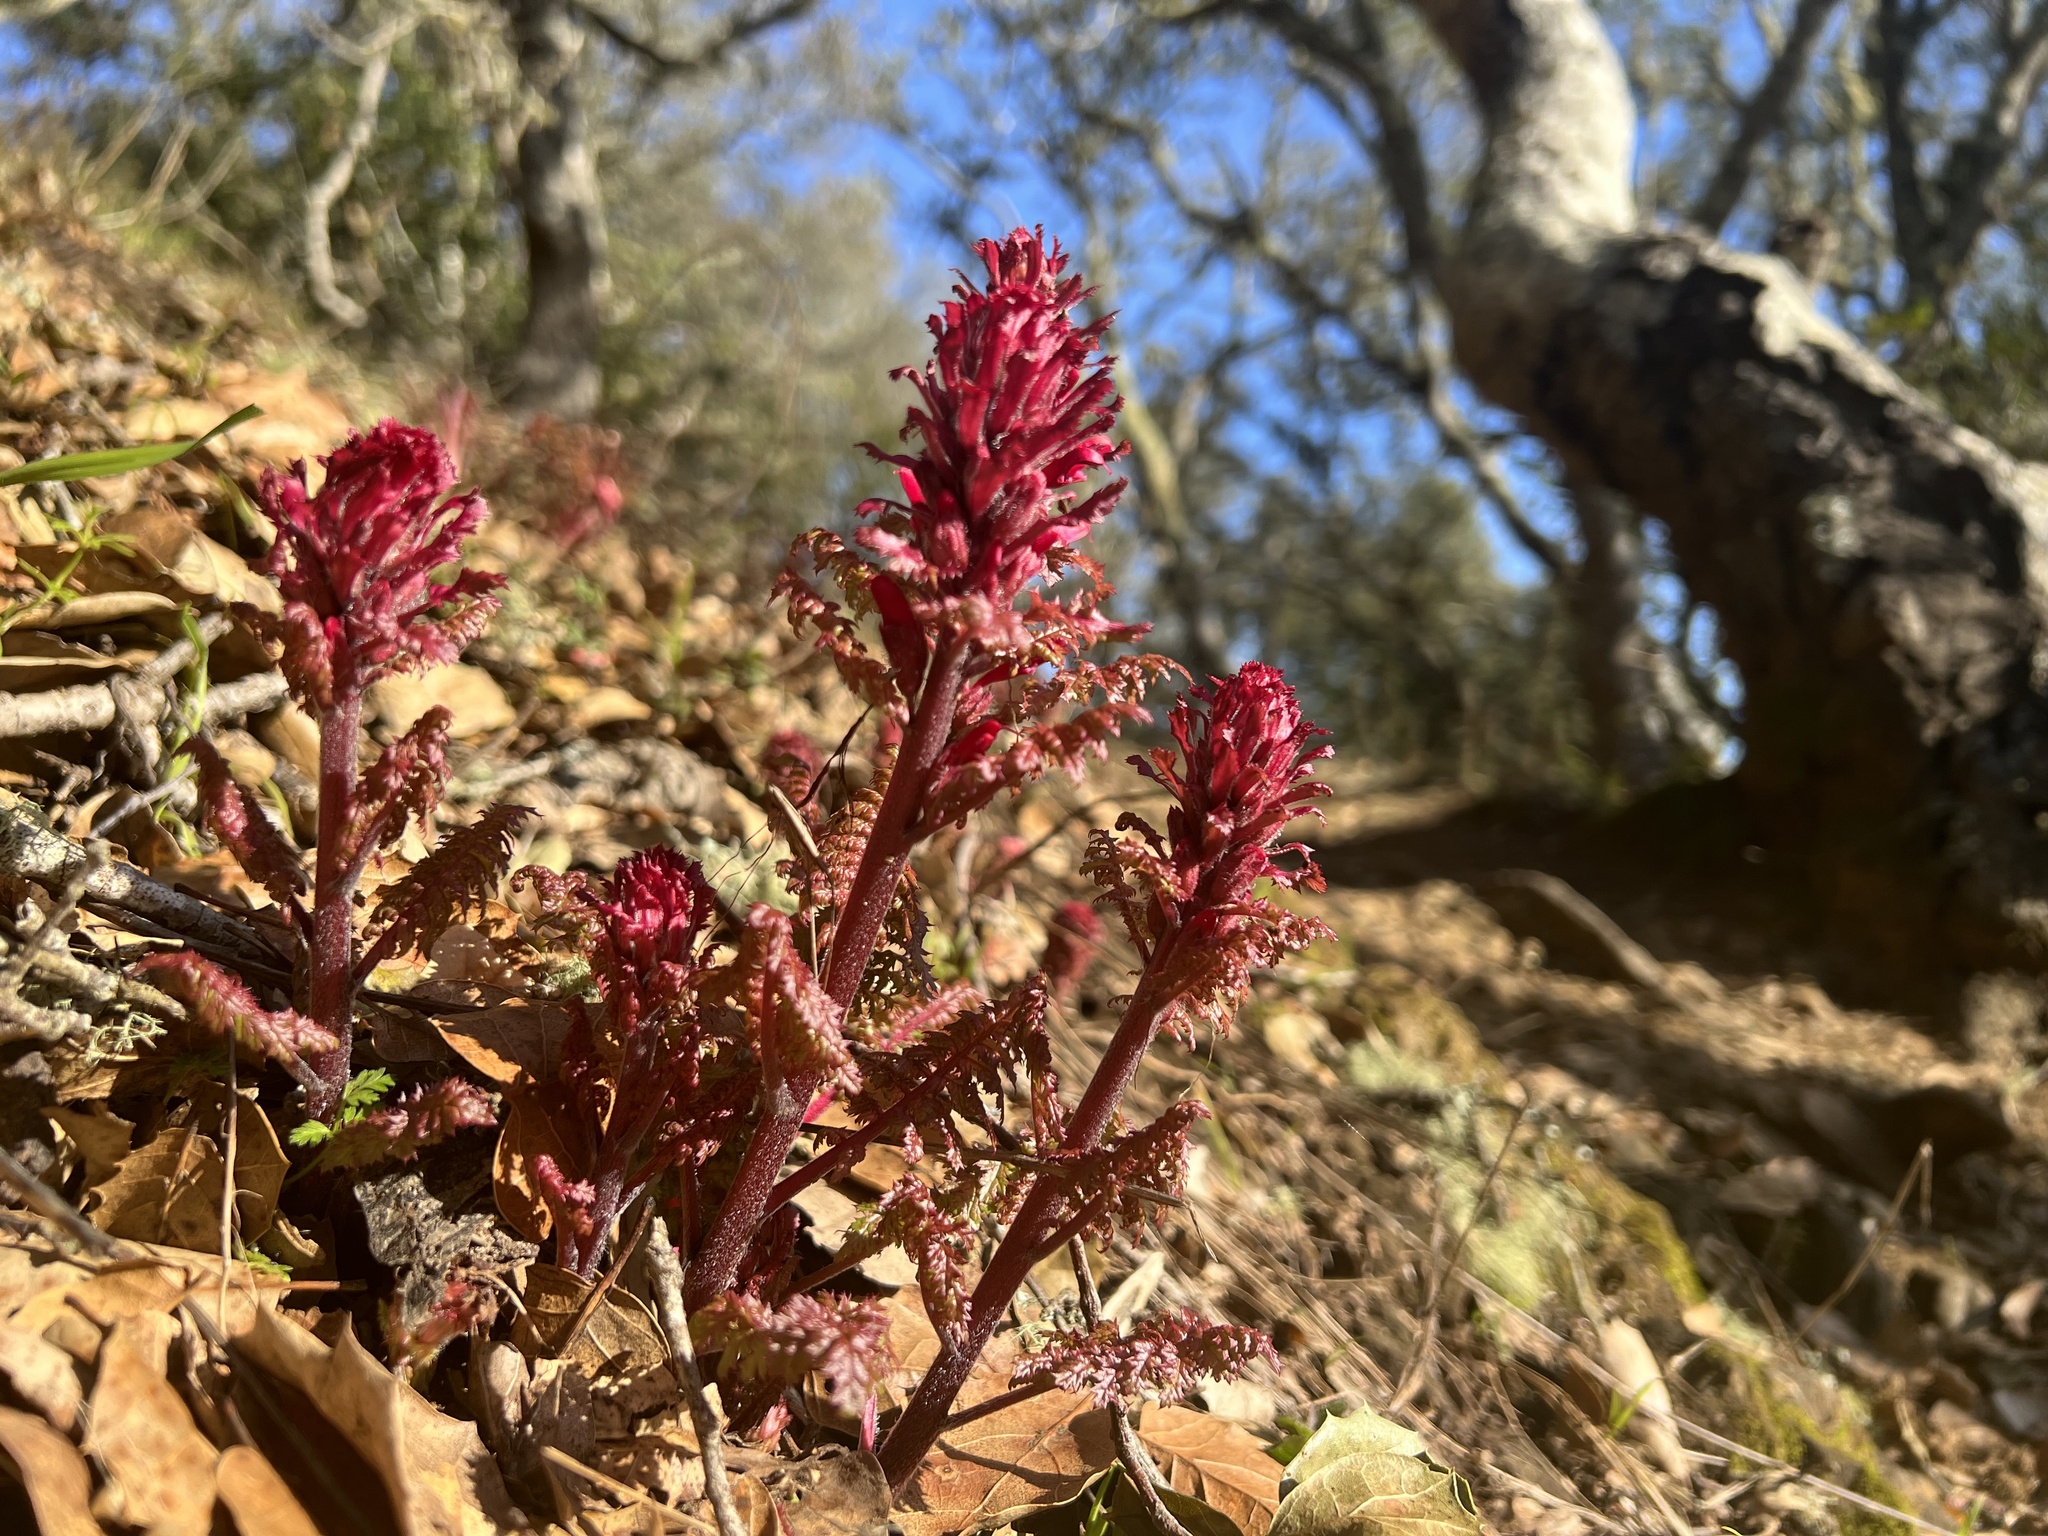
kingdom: Plantae
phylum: Tracheophyta
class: Magnoliopsida
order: Lamiales
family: Orobanchaceae
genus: Pedicularis
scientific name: Pedicularis densiflora
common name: Indian warrior
